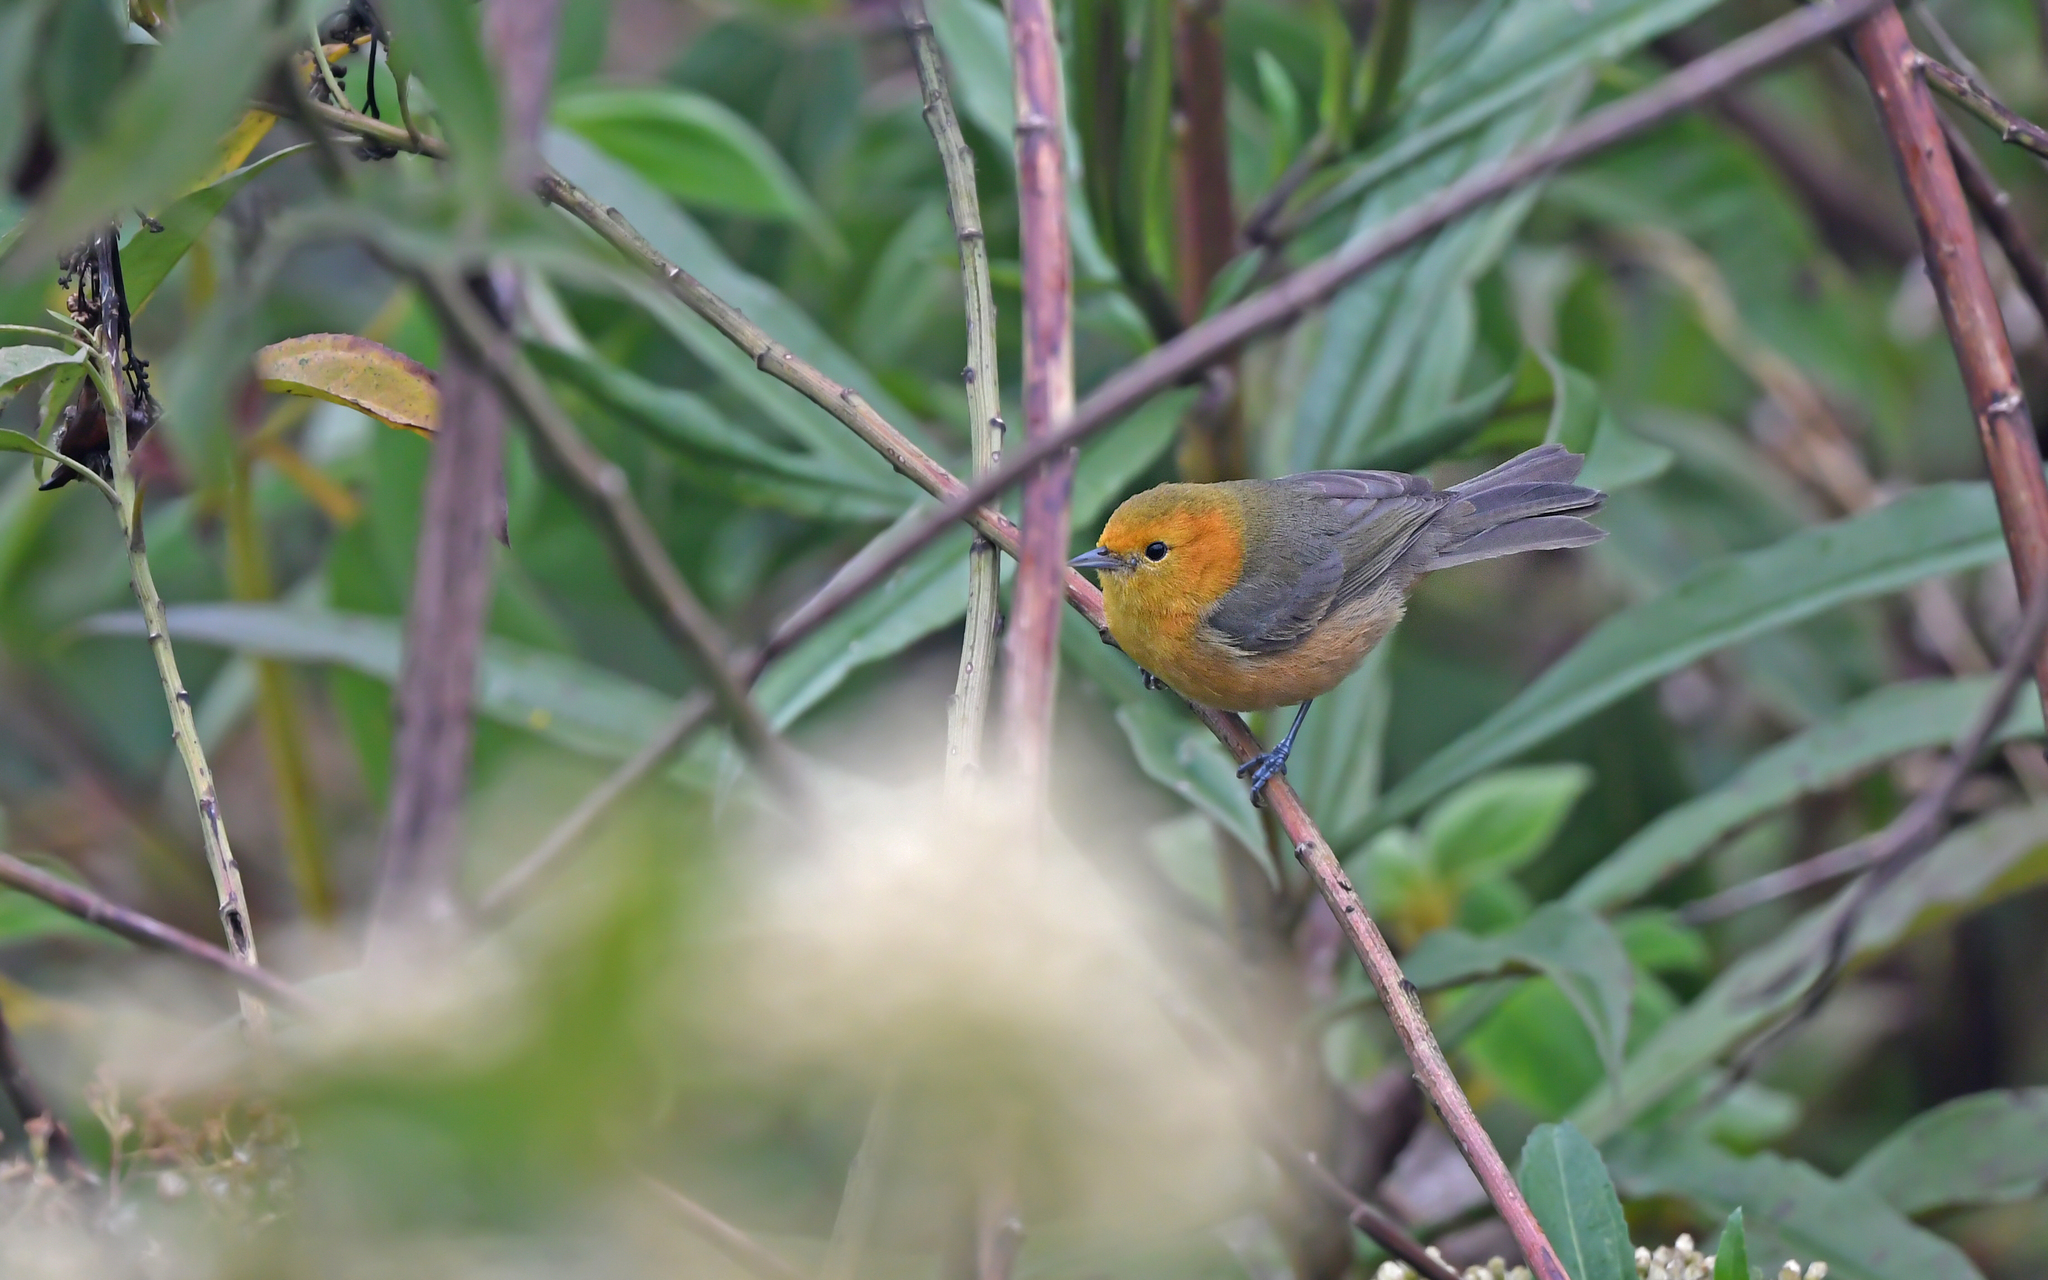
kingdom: Animalia
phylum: Chordata
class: Aves
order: Passeriformes
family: Thraupidae
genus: Thlypopsis
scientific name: Thlypopsis ornata
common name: Rufous-chested tanager
